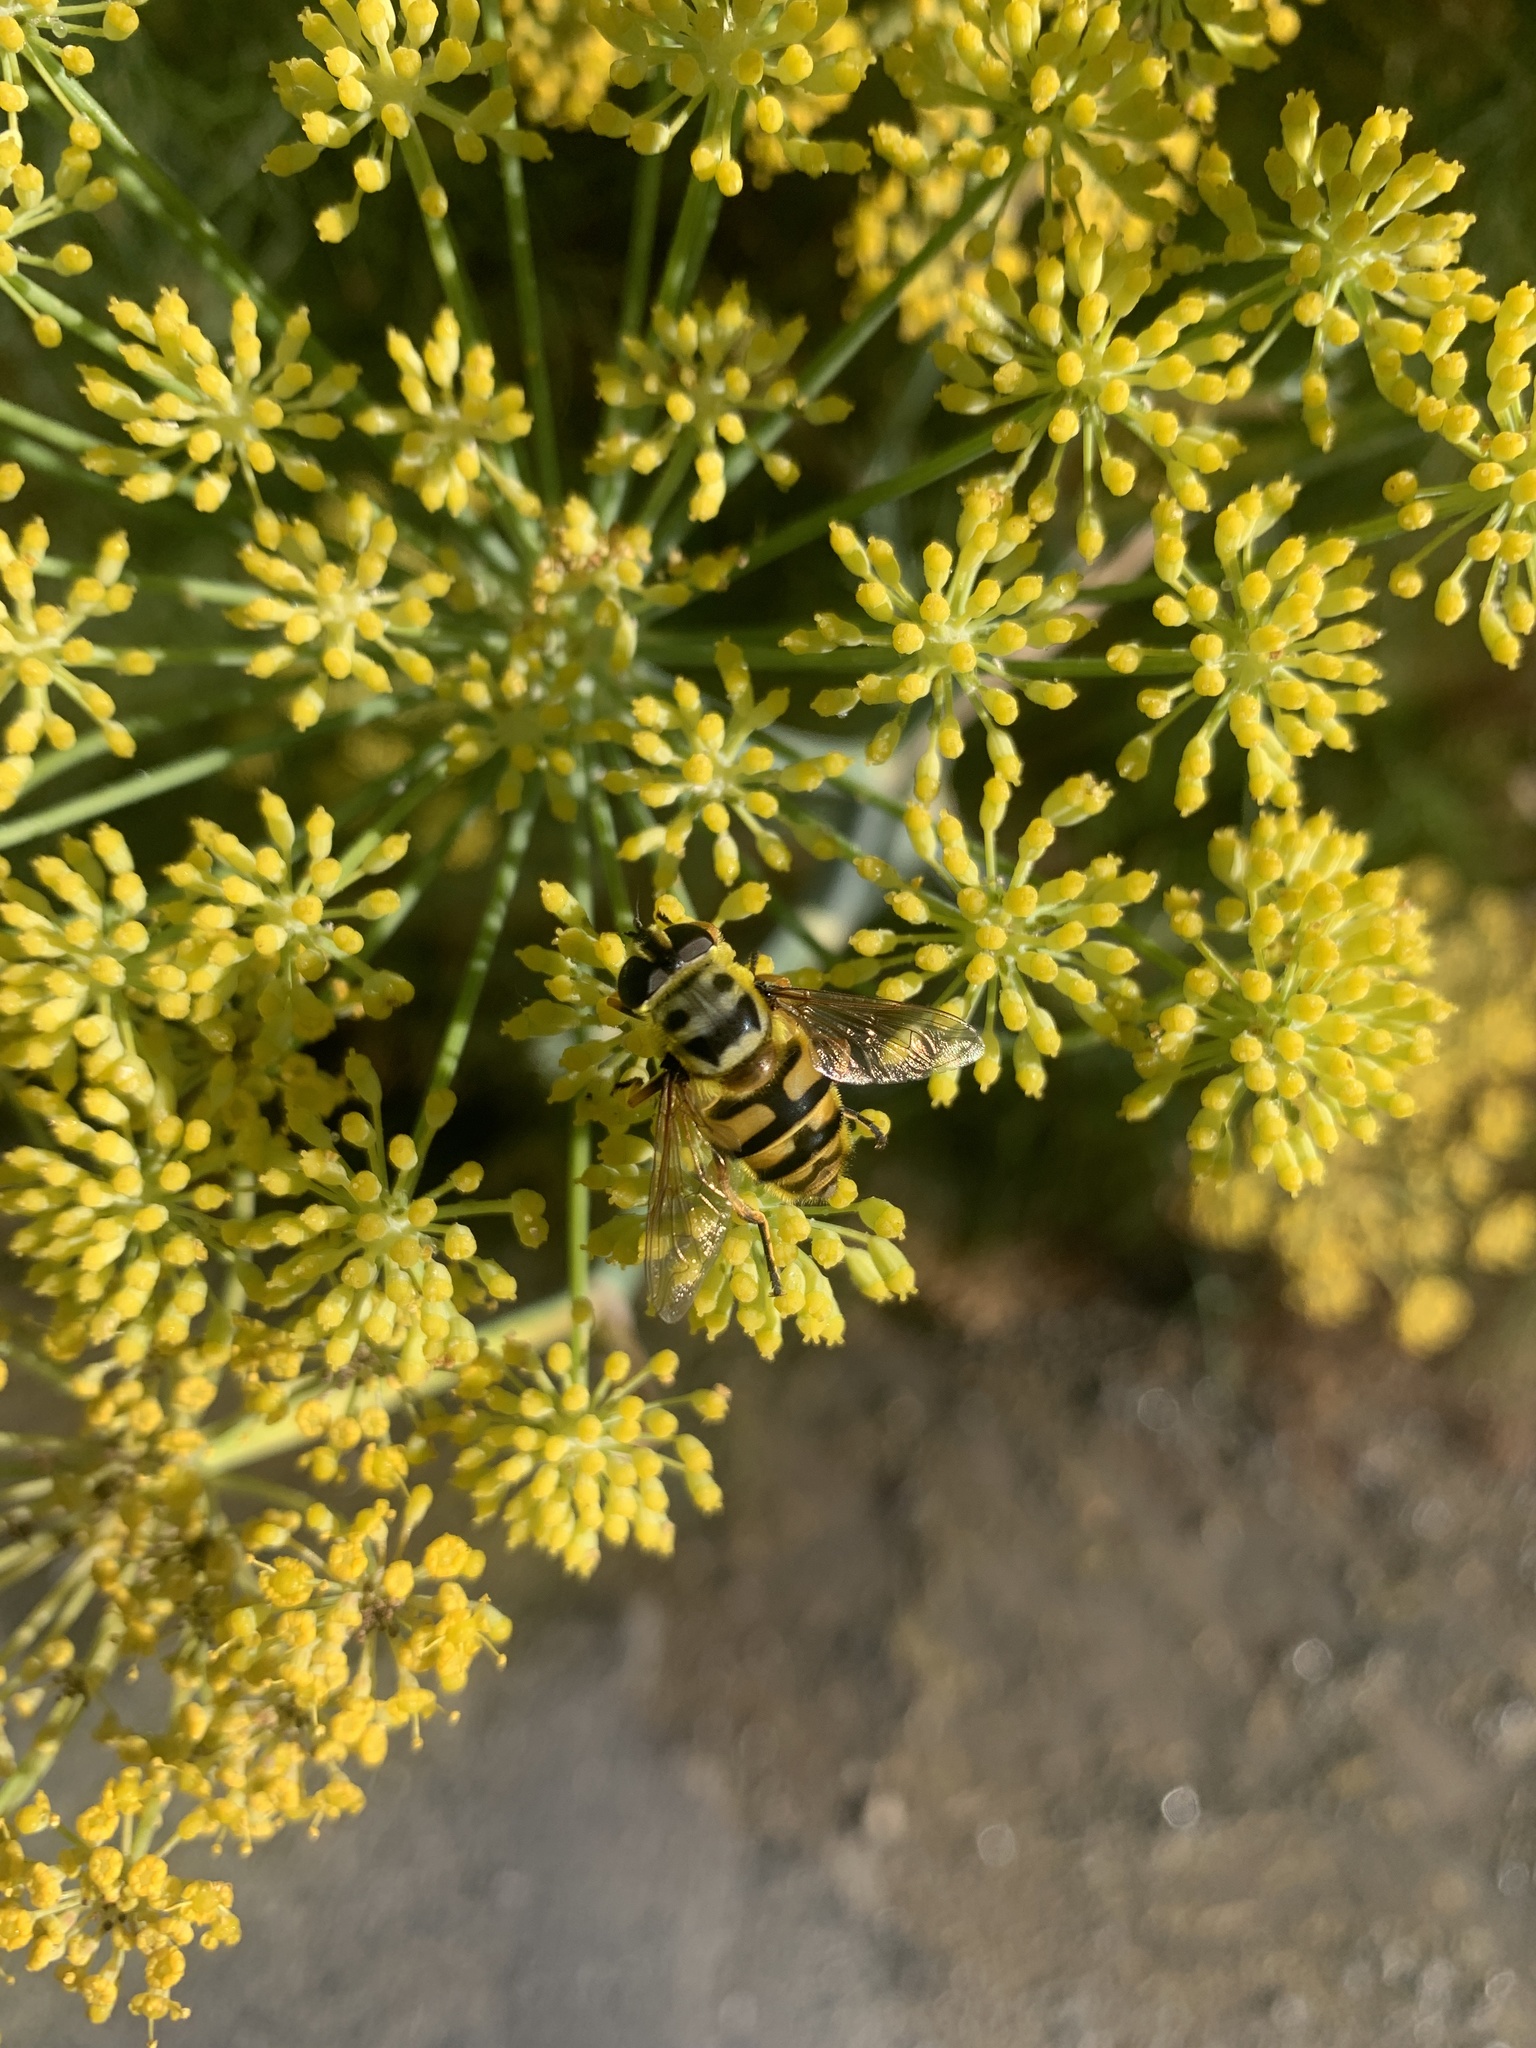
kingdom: Animalia
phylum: Arthropoda
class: Insecta
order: Diptera
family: Syrphidae
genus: Myathropa
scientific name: Myathropa florea
